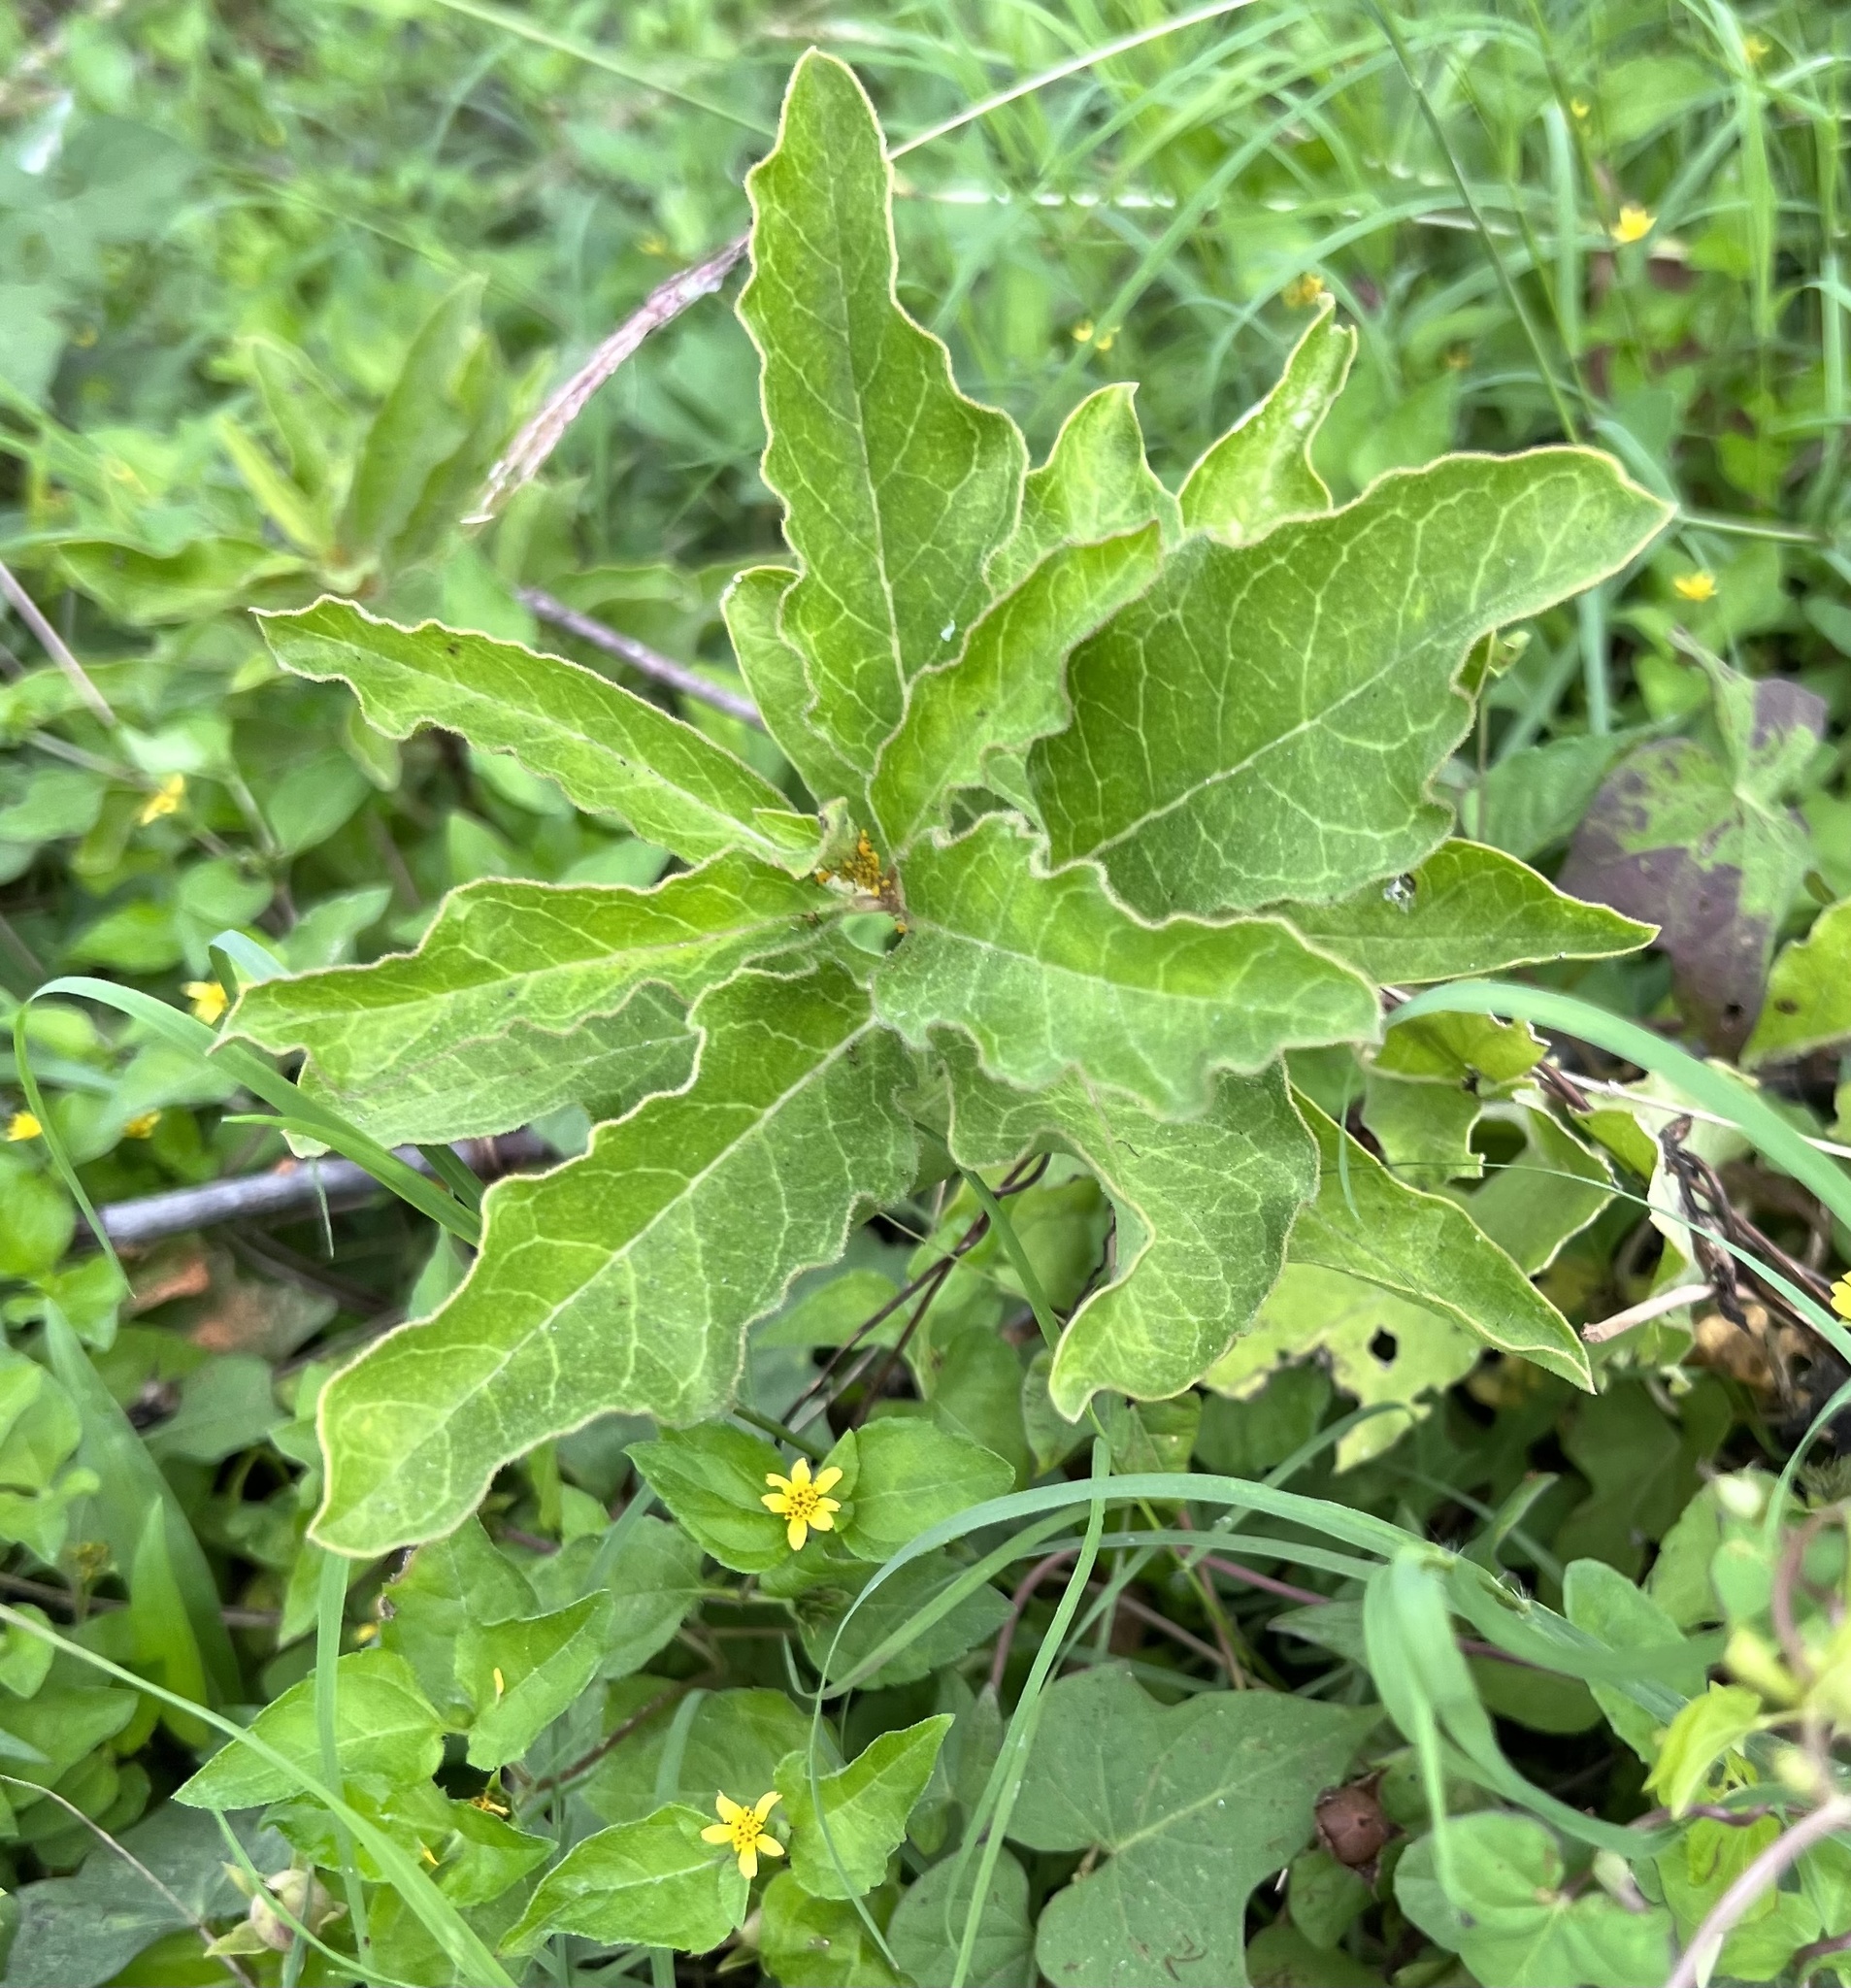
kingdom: Plantae
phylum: Tracheophyta
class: Magnoliopsida
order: Gentianales
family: Apocynaceae
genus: Asclepias
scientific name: Asclepias oenotheroides
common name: Zizotes milkweed
